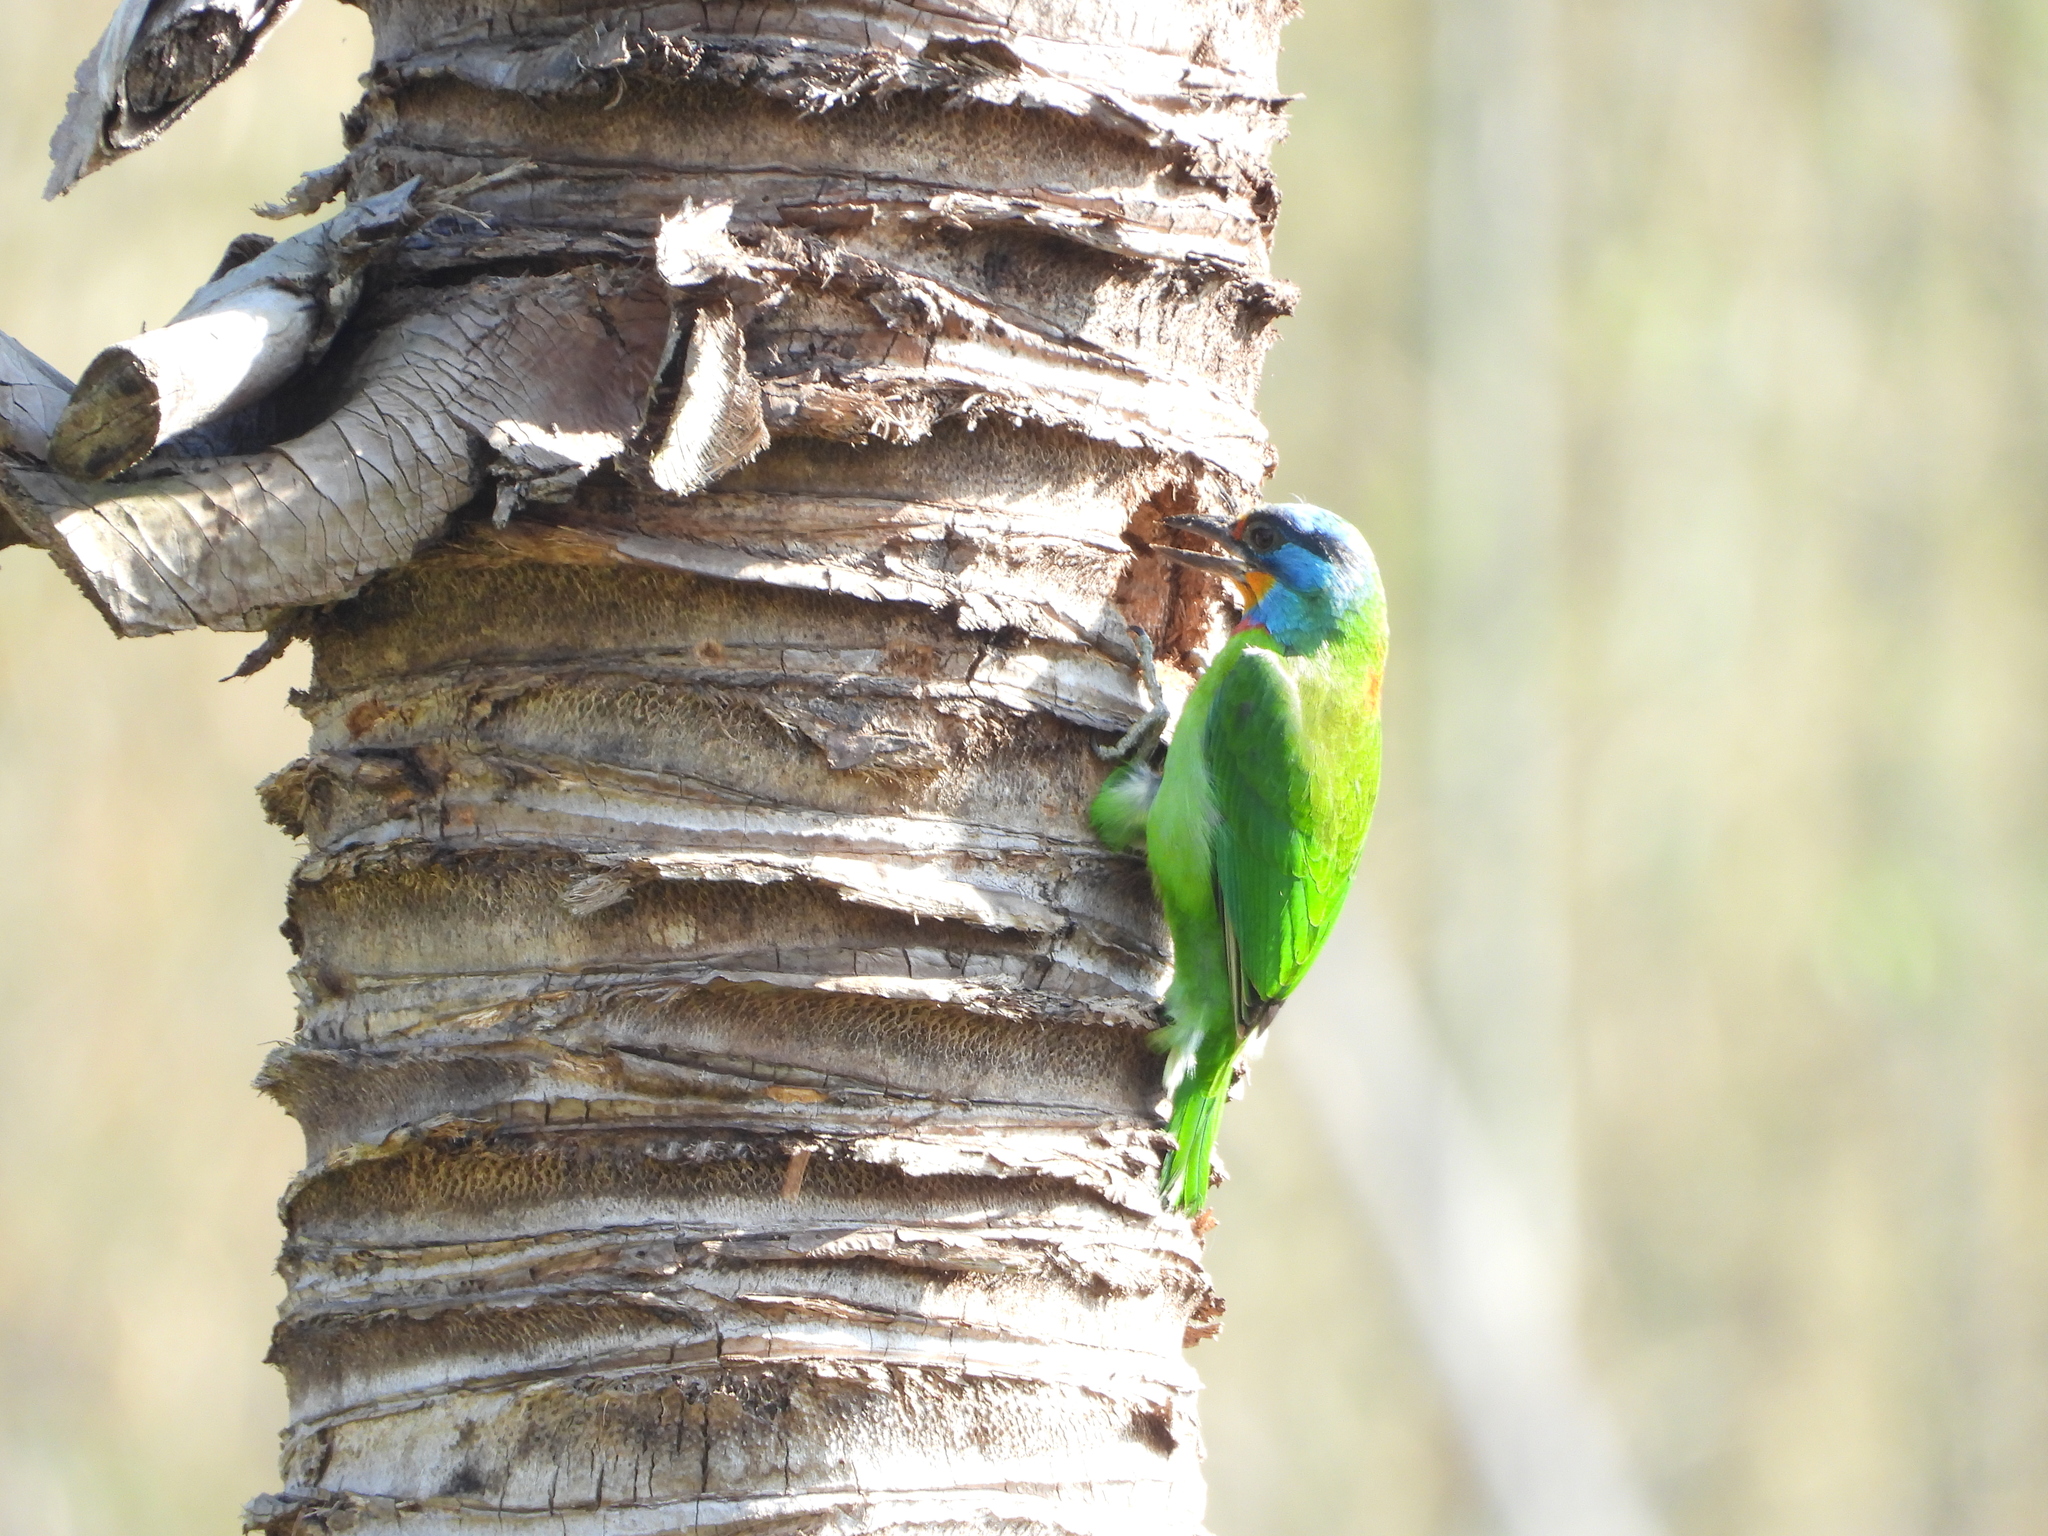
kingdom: Animalia
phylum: Chordata
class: Aves
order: Piciformes
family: Megalaimidae
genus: Psilopogon
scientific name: Psilopogon nuchalis
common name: Taiwan barbet
